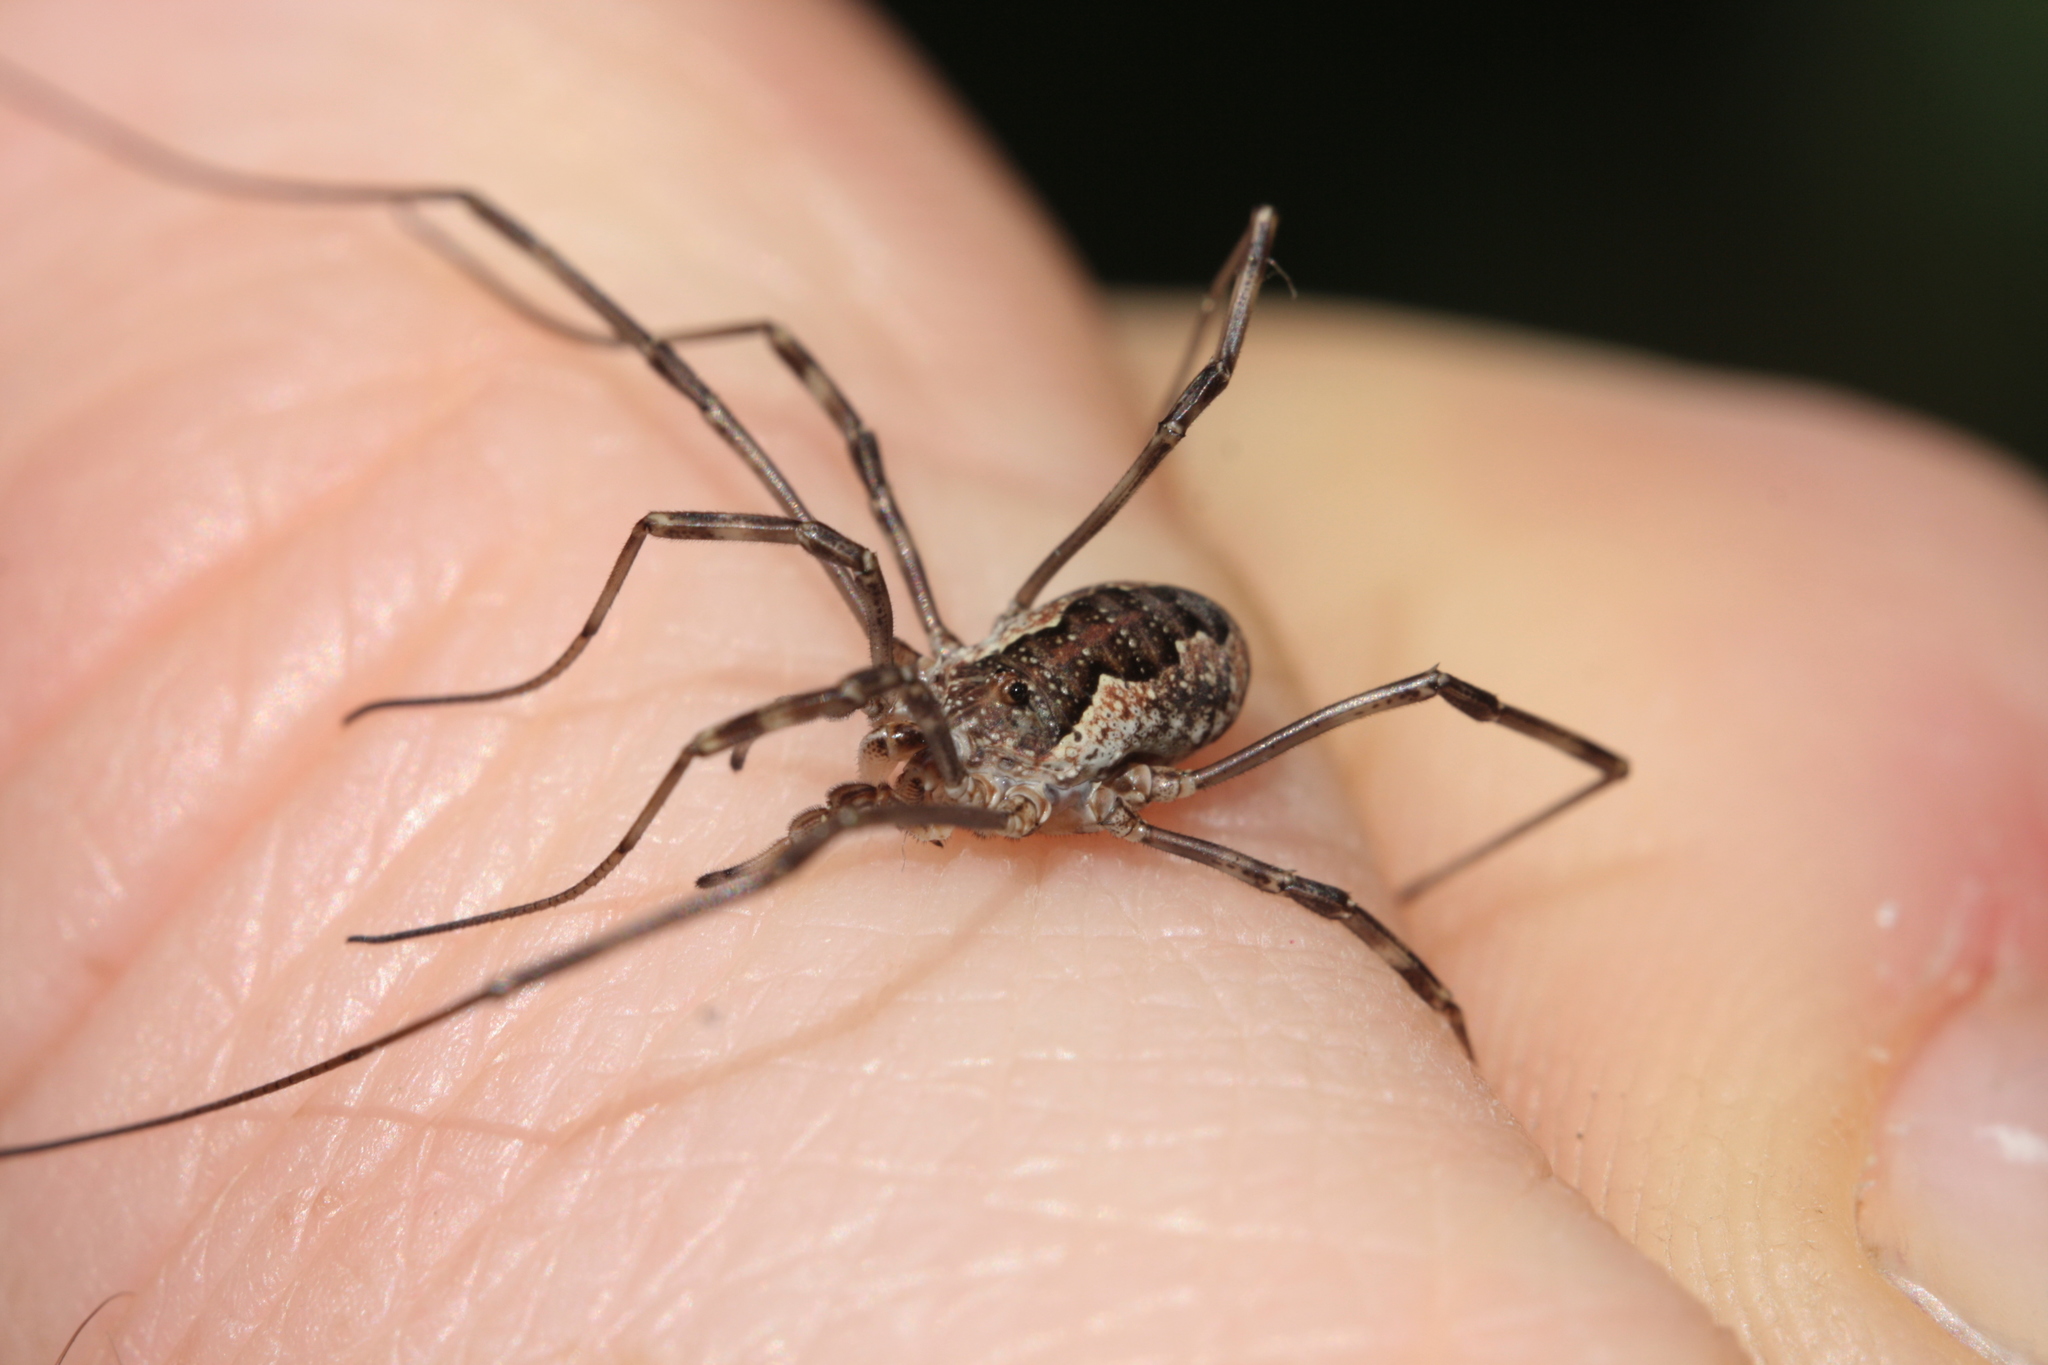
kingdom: Animalia
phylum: Arthropoda
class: Arachnida
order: Opiliones
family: Phalangiidae
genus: Mitopus
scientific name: Mitopus morio
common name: Saddleback harvestman
